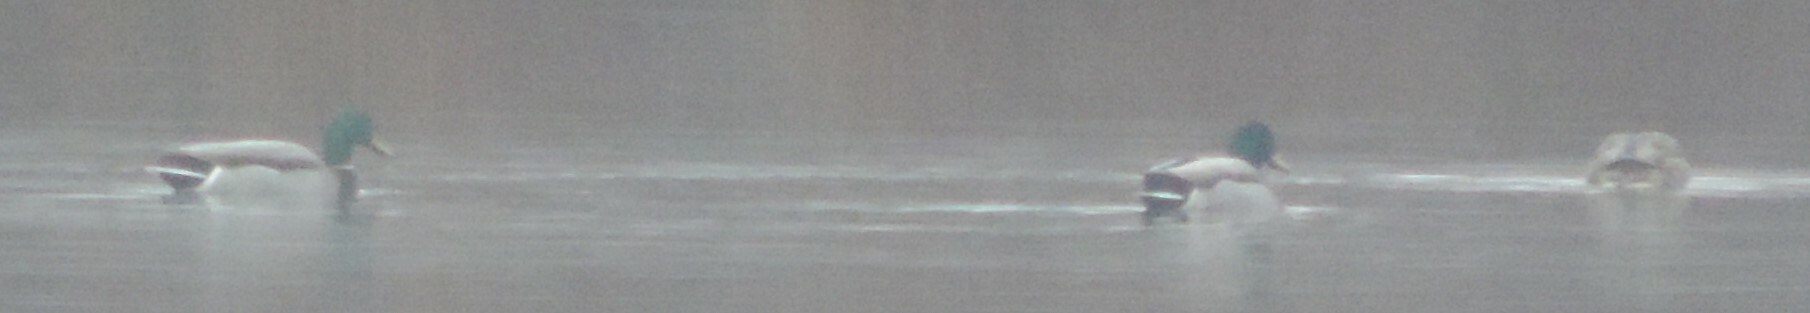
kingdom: Animalia
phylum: Chordata
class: Aves
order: Anseriformes
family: Anatidae
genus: Anas
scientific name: Anas platyrhynchos
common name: Mallard
